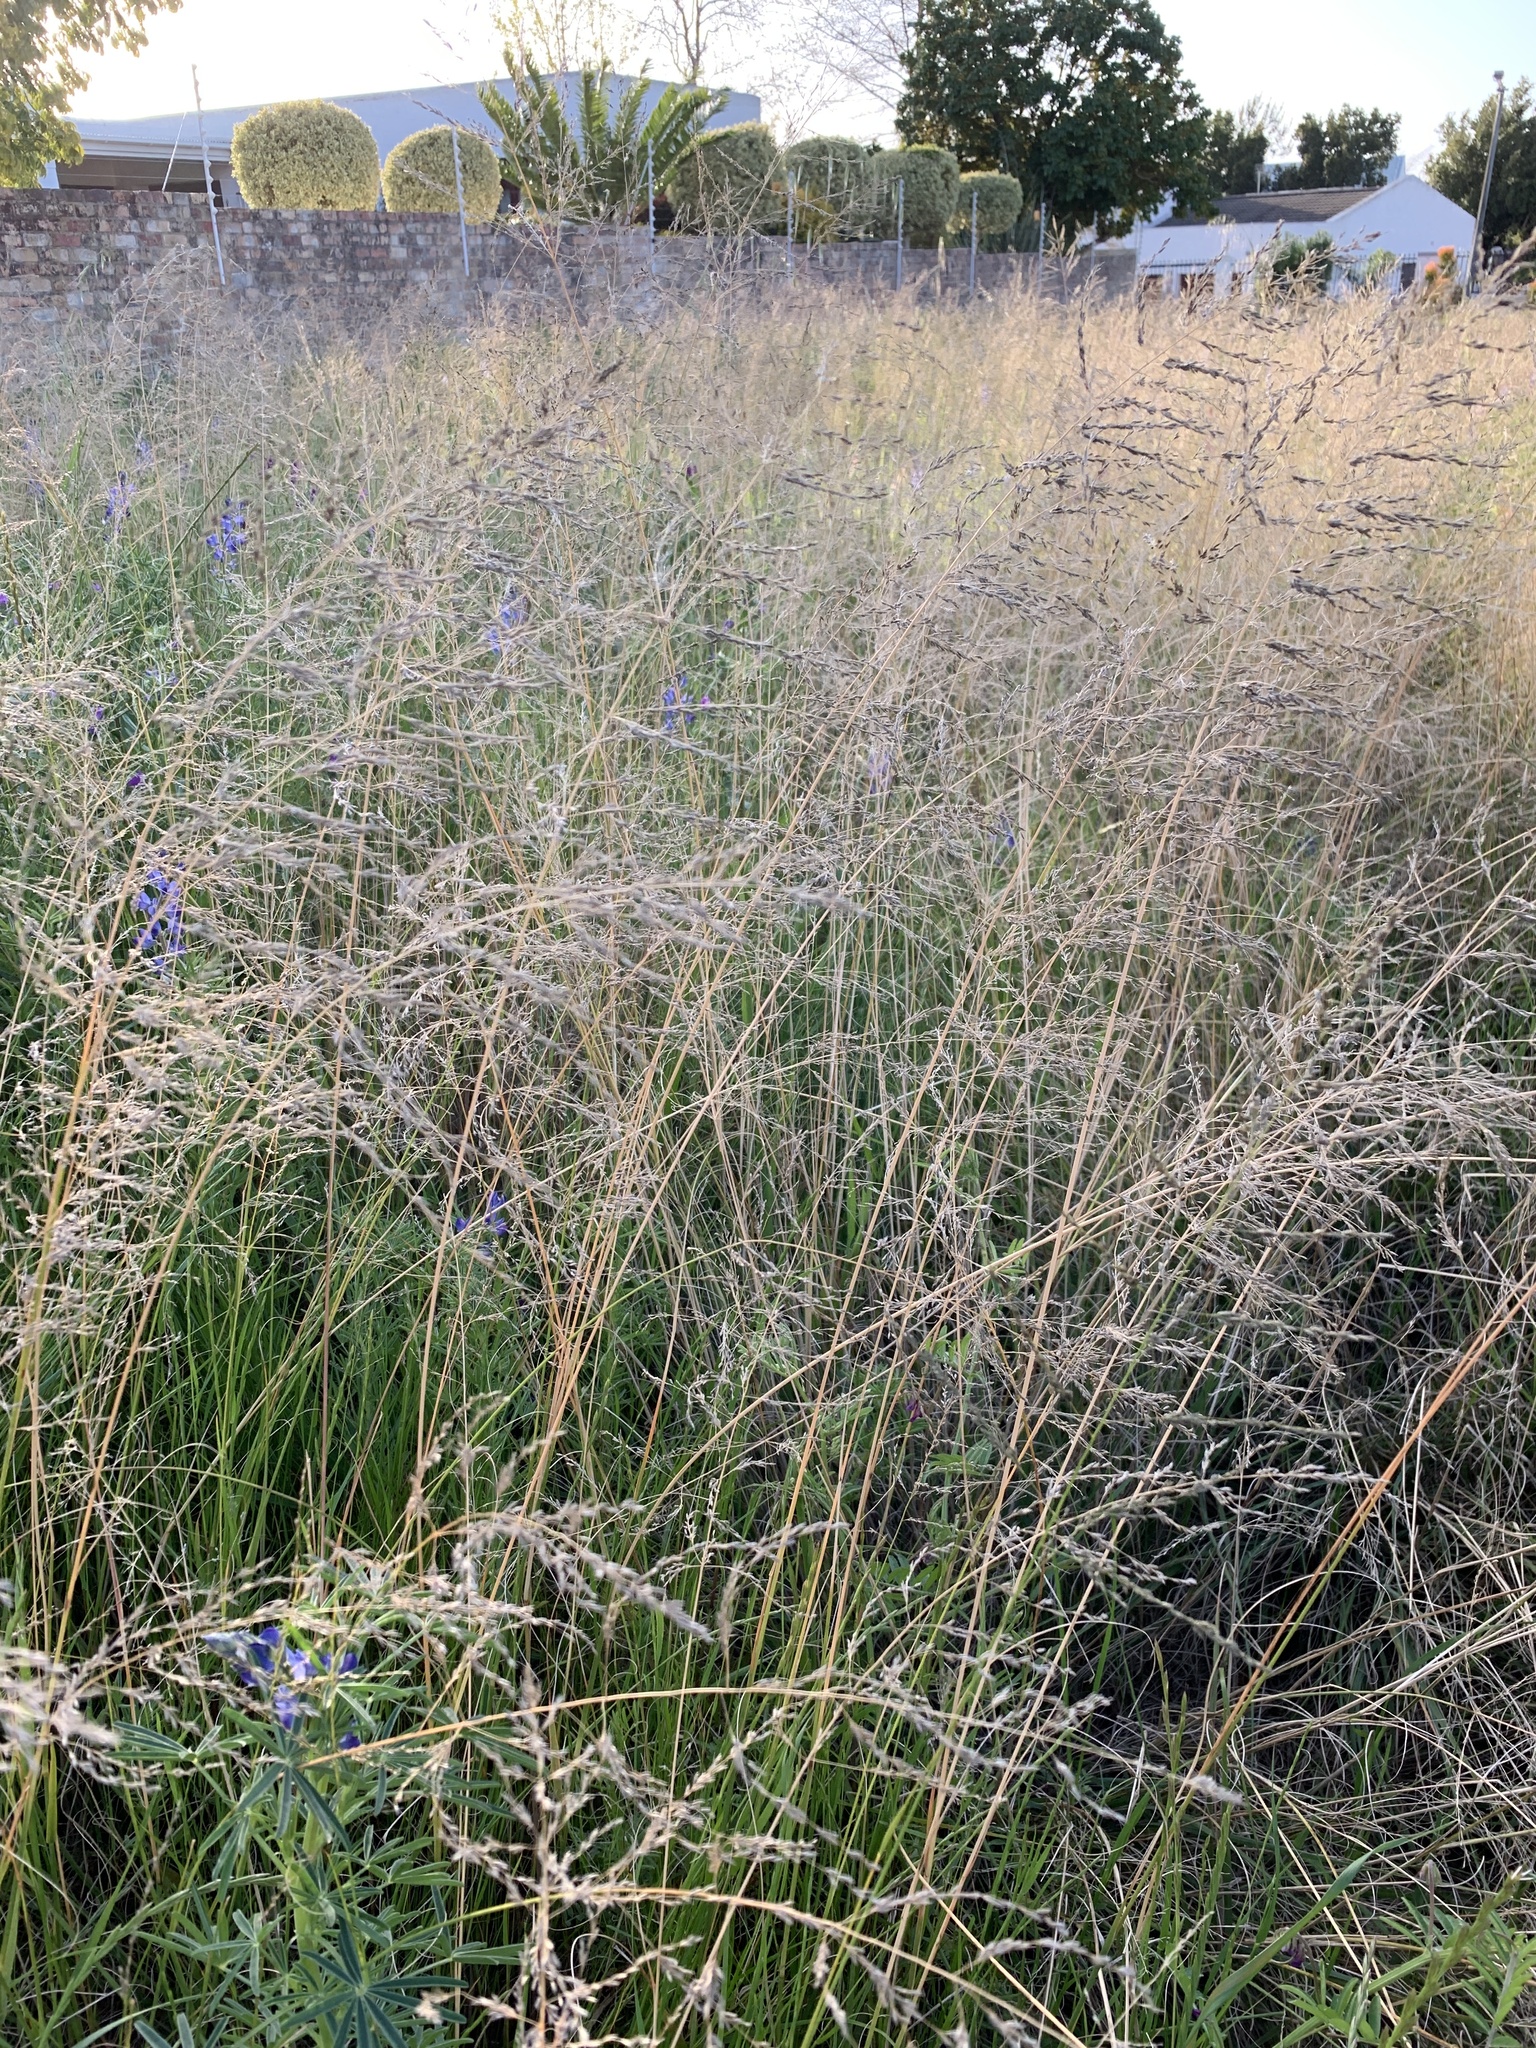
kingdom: Plantae
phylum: Tracheophyta
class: Liliopsida
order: Poales
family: Poaceae
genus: Eragrostis
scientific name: Eragrostis curvula
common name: African love-grass
